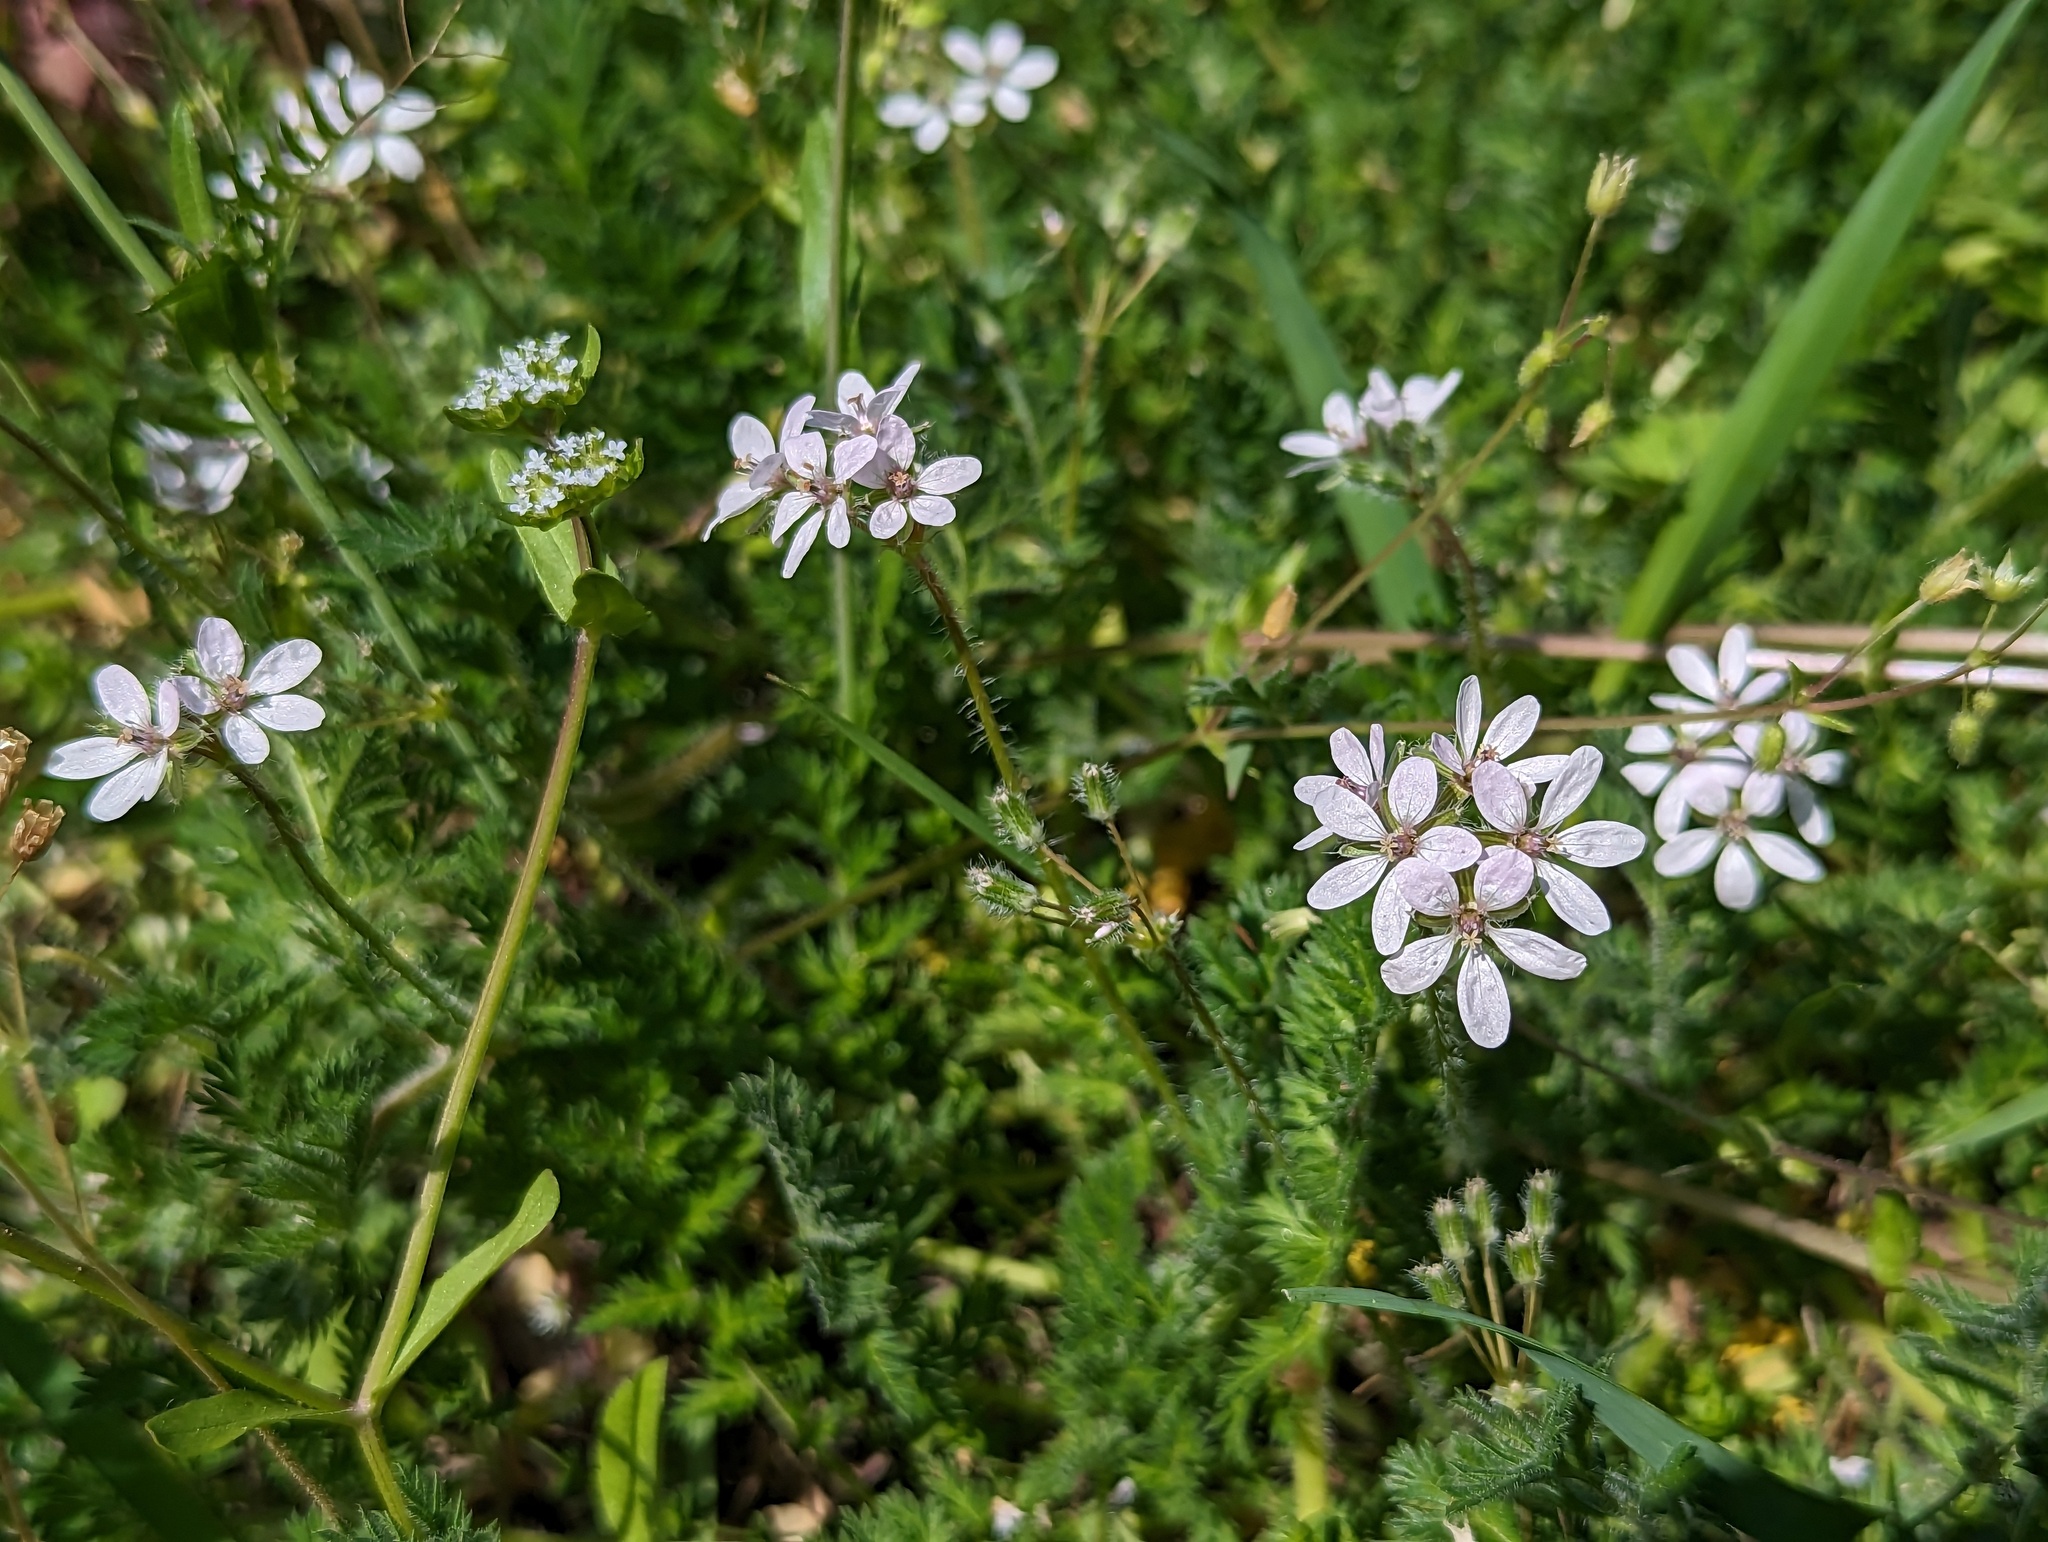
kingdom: Plantae
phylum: Tracheophyta
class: Magnoliopsida
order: Geraniales
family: Geraniaceae
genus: Erodium
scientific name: Erodium cicutarium
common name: Common stork's-bill
